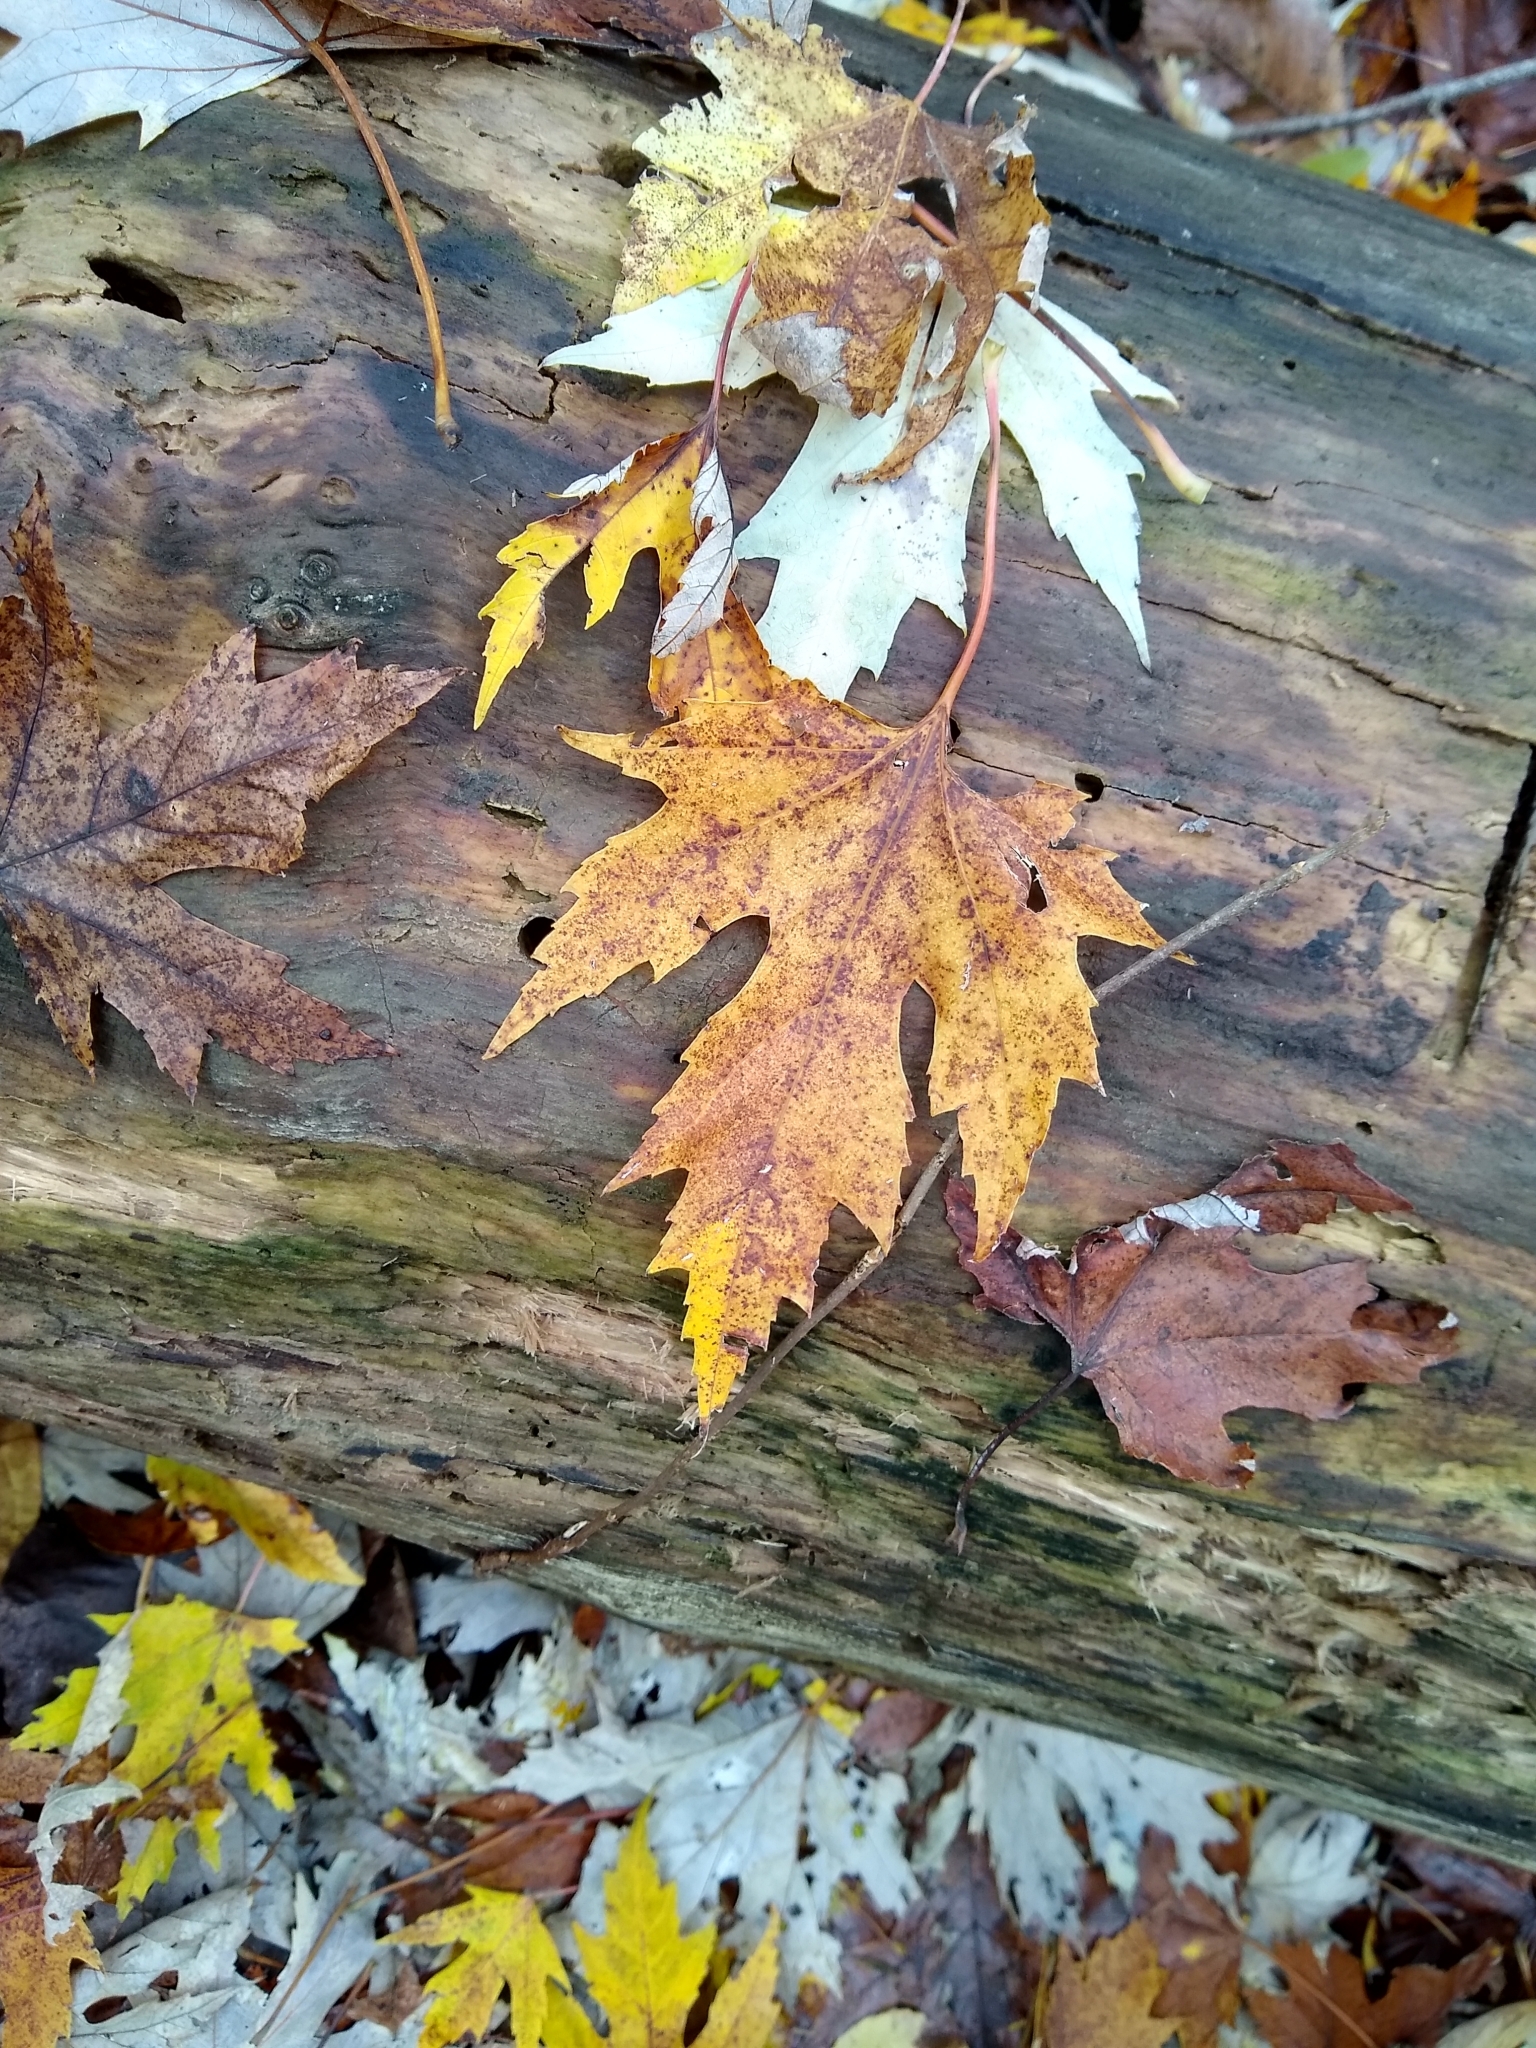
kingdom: Plantae
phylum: Tracheophyta
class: Magnoliopsida
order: Sapindales
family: Sapindaceae
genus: Acer
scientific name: Acer saccharinum
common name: Silver maple
